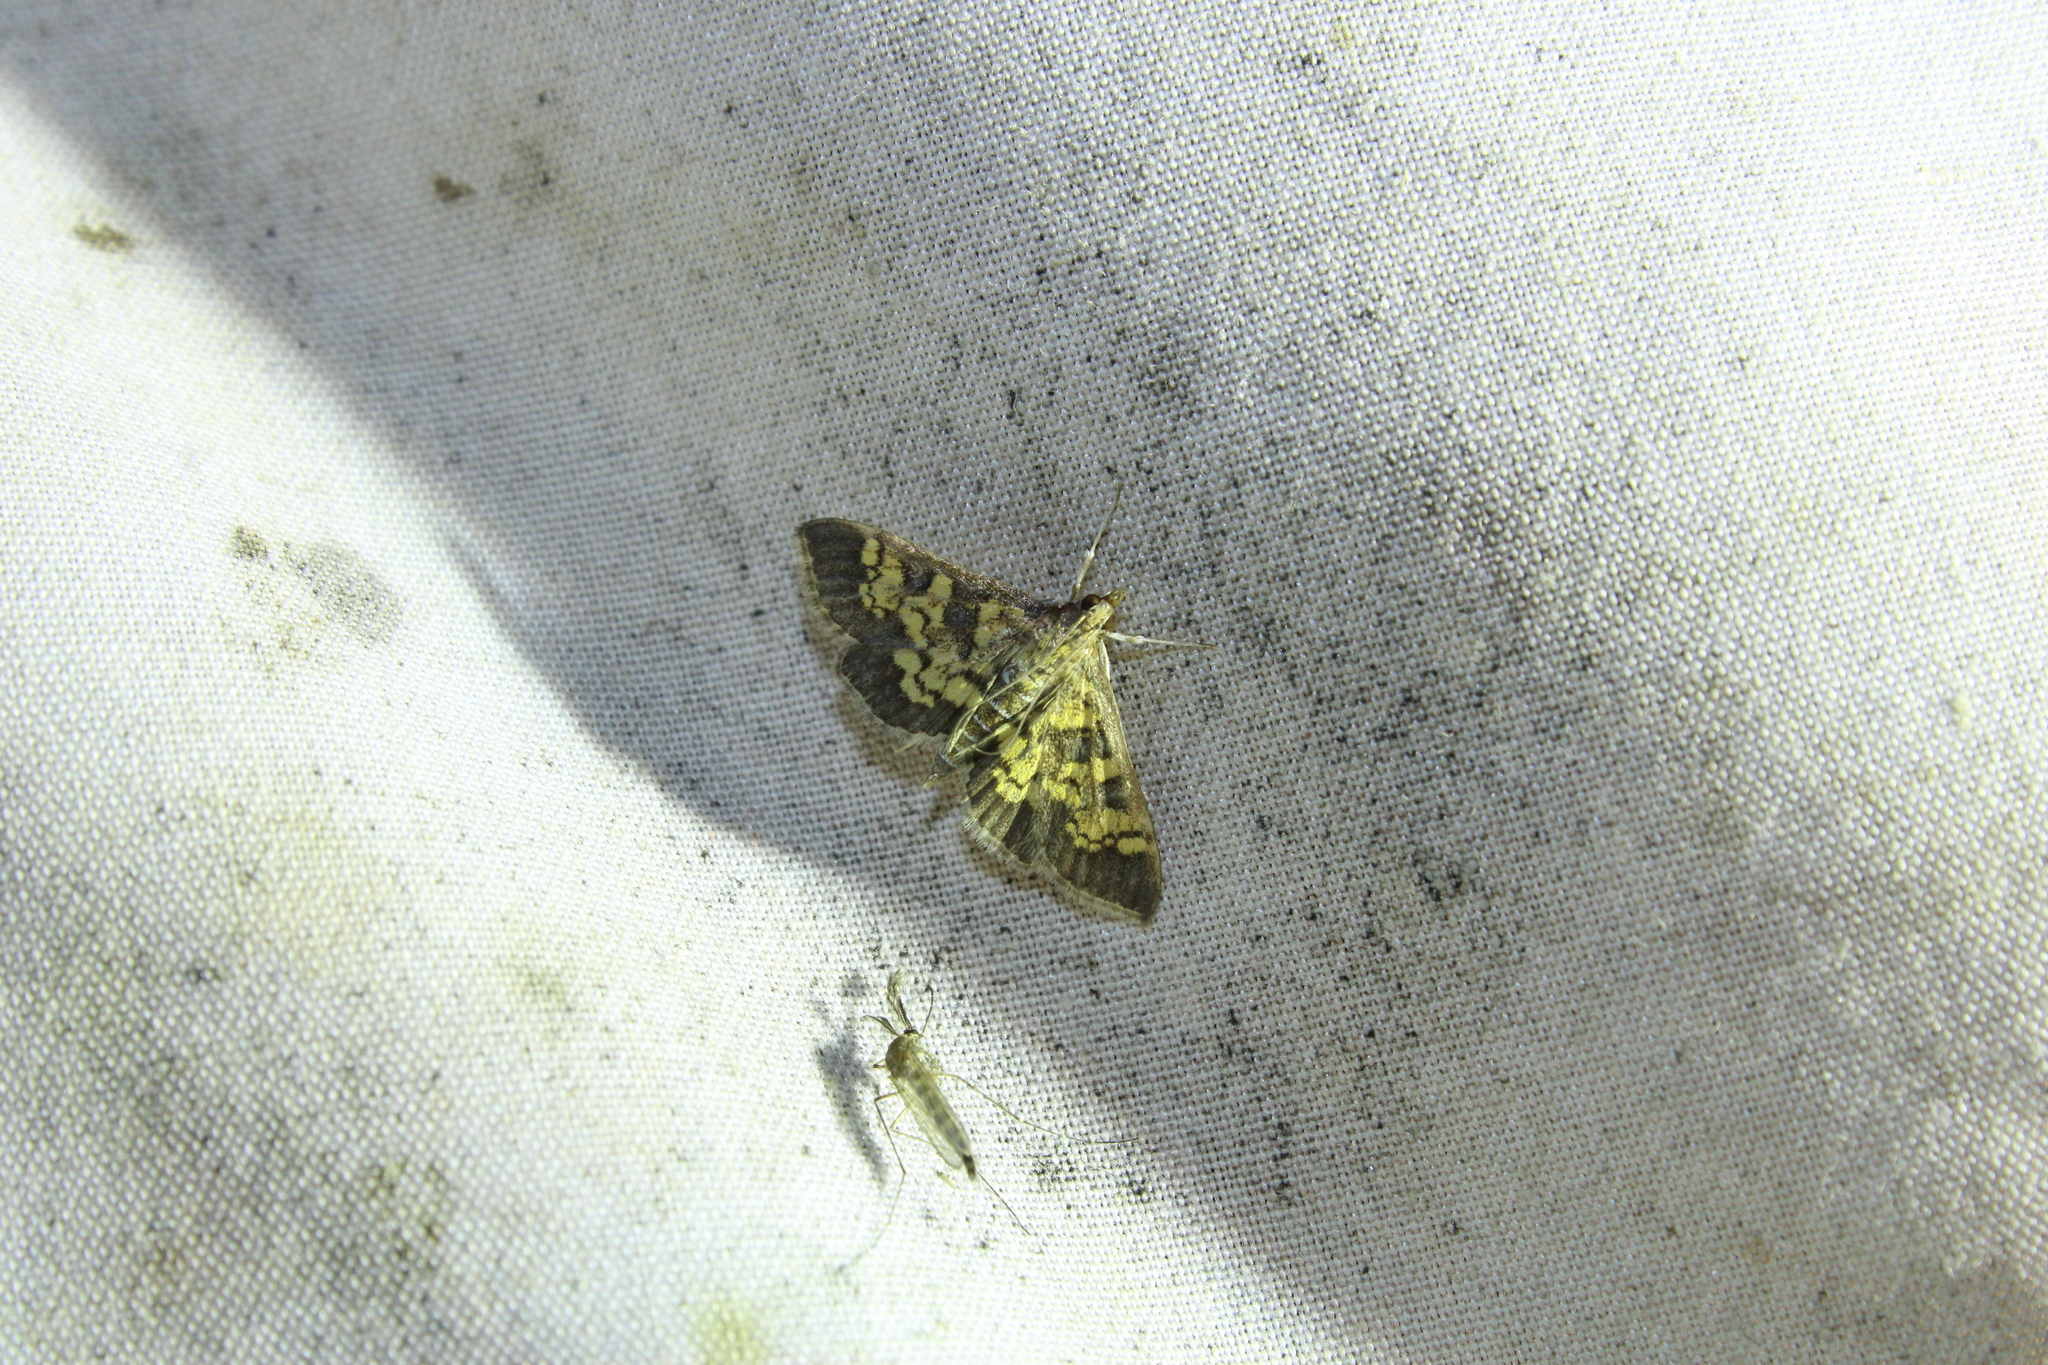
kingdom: Animalia
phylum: Arthropoda
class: Insecta
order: Lepidoptera
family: Crambidae
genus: Epipagis
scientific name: Epipagis adipaloides
